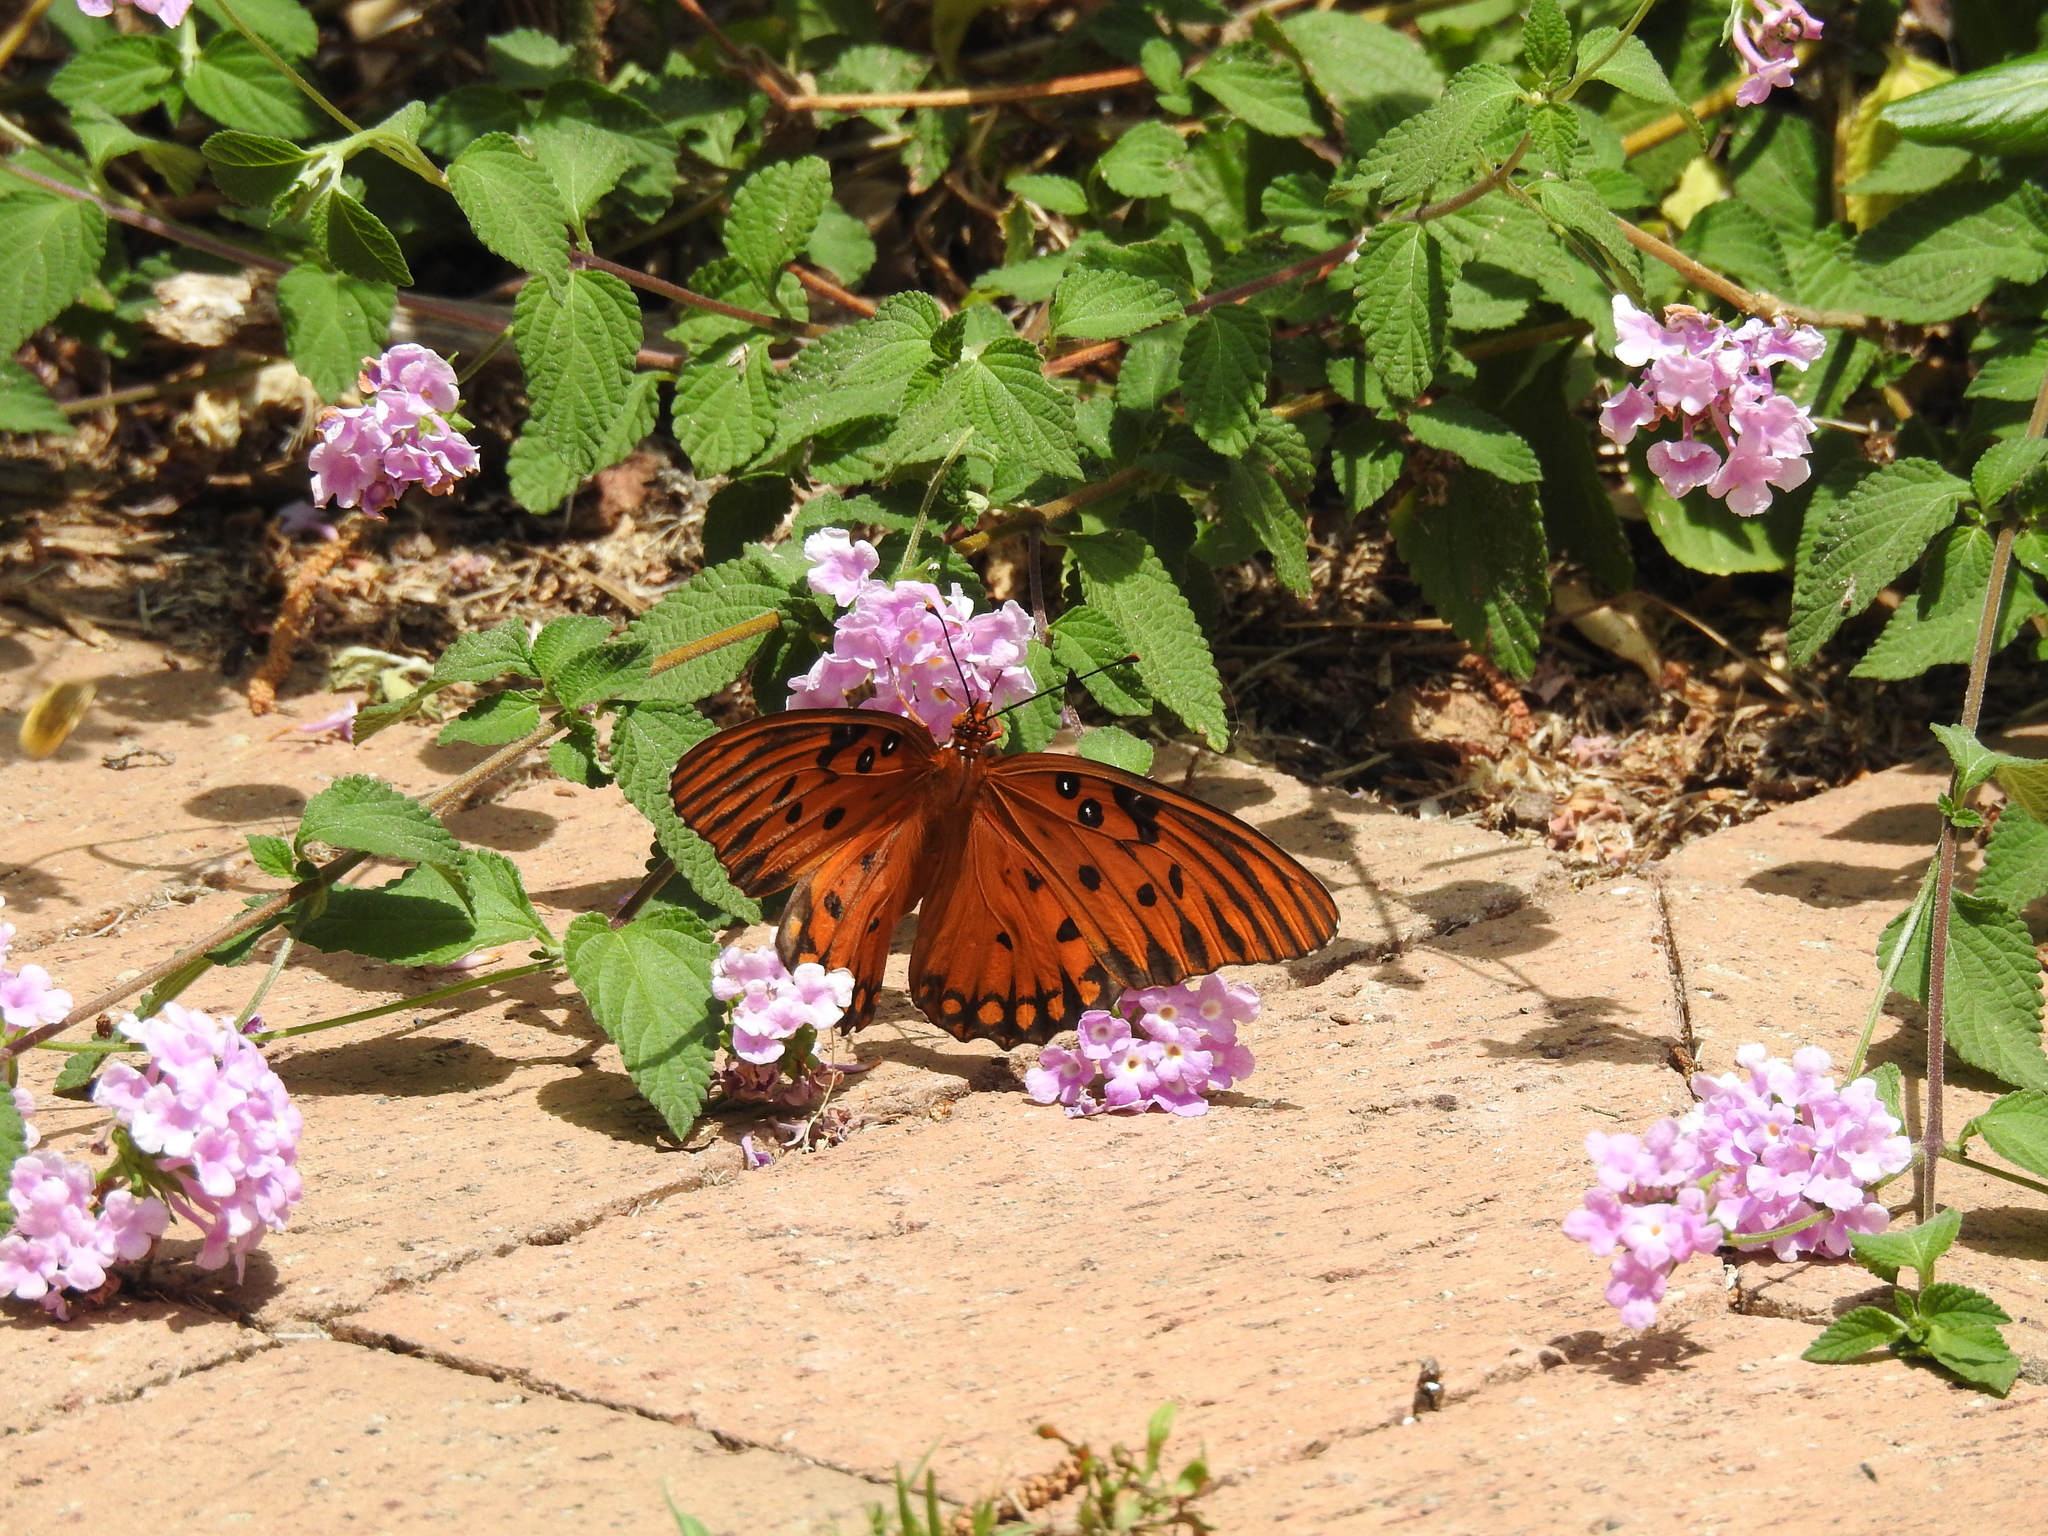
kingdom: Animalia
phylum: Arthropoda
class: Insecta
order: Lepidoptera
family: Nymphalidae
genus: Dione
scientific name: Dione vanillae
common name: Gulf fritillary
